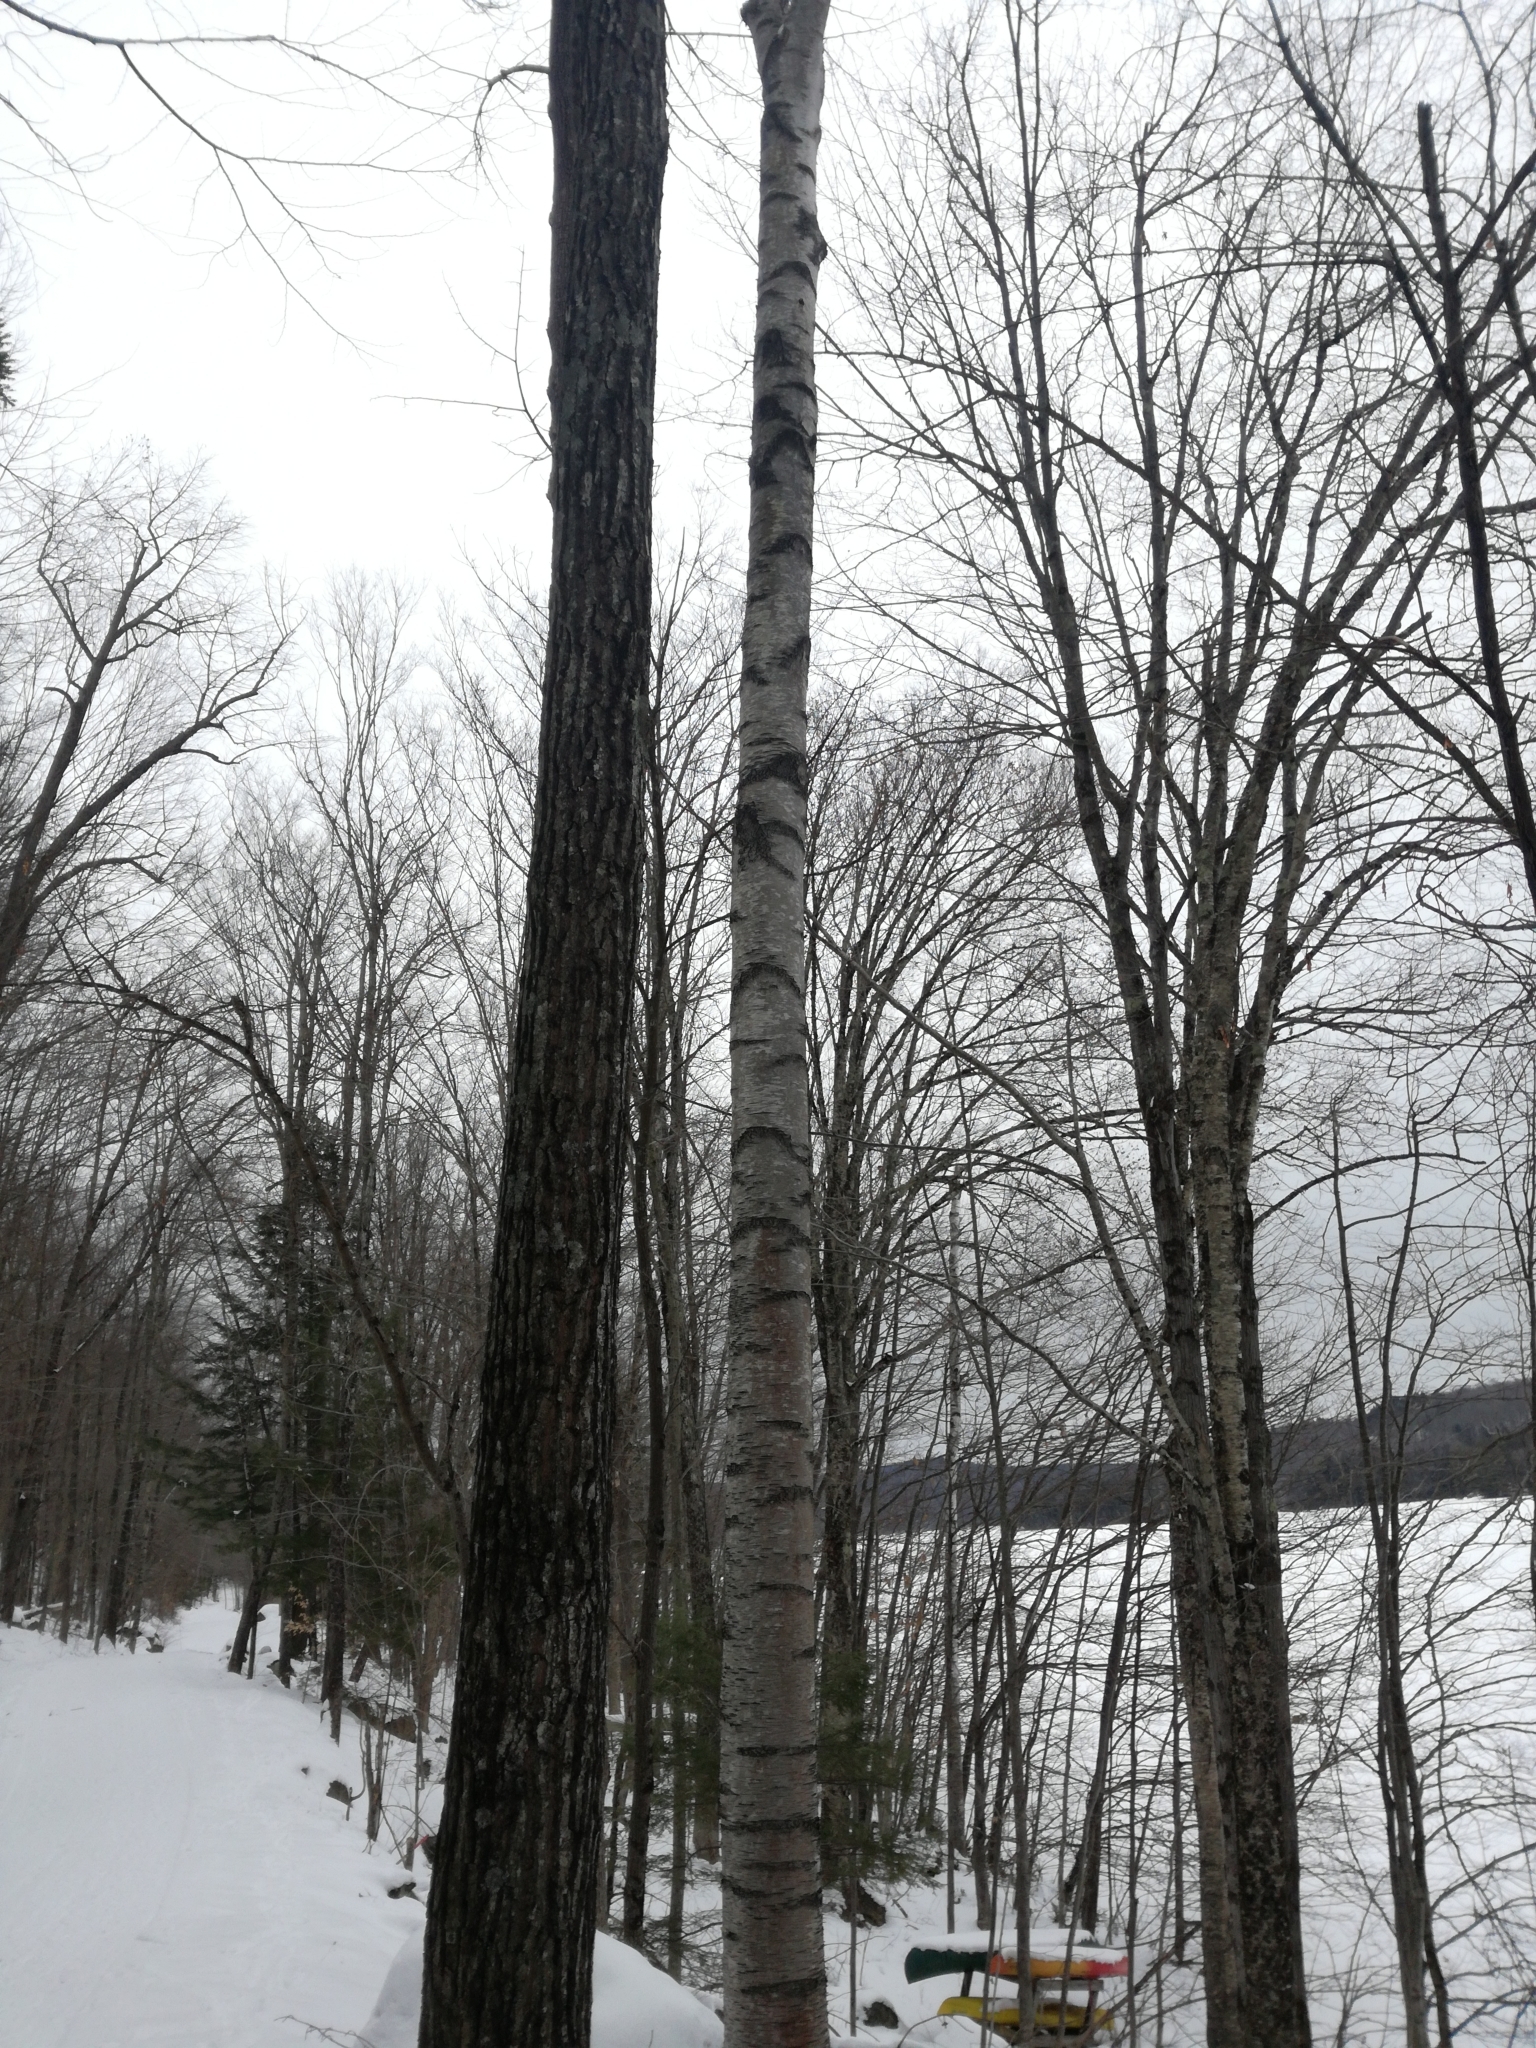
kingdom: Plantae
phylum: Tracheophyta
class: Magnoliopsida
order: Fagales
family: Betulaceae
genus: Betula
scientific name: Betula populifolia
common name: Fire birch
